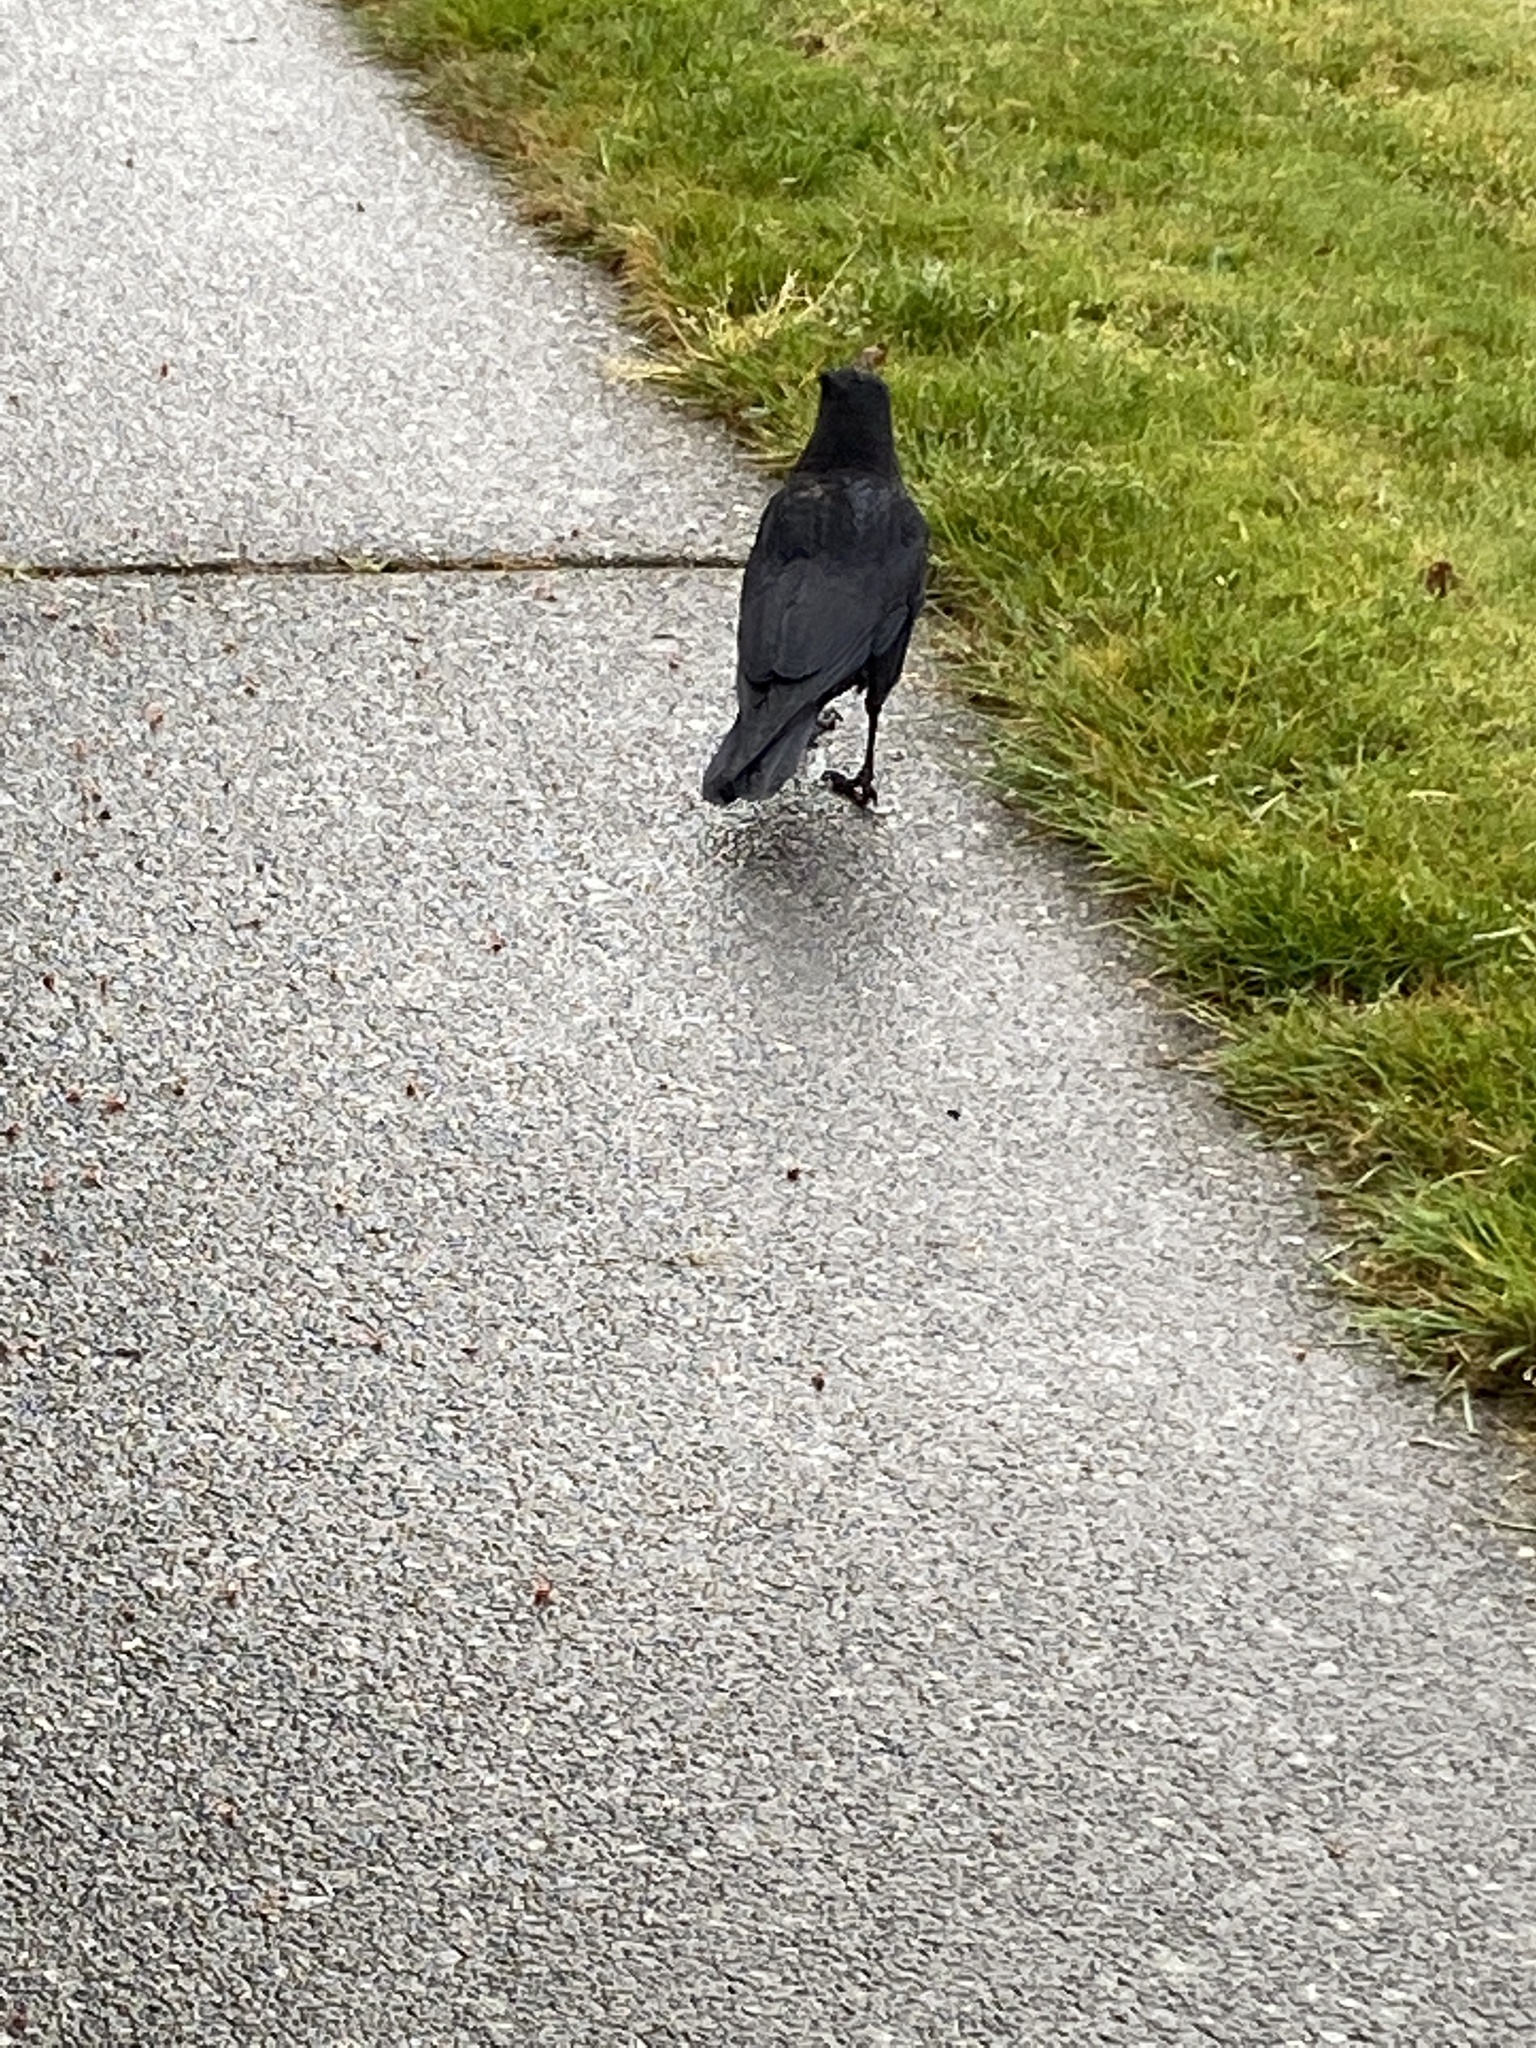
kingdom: Animalia
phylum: Chordata
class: Aves
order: Passeriformes
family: Corvidae
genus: Corvus
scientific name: Corvus brachyrhynchos
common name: American crow
